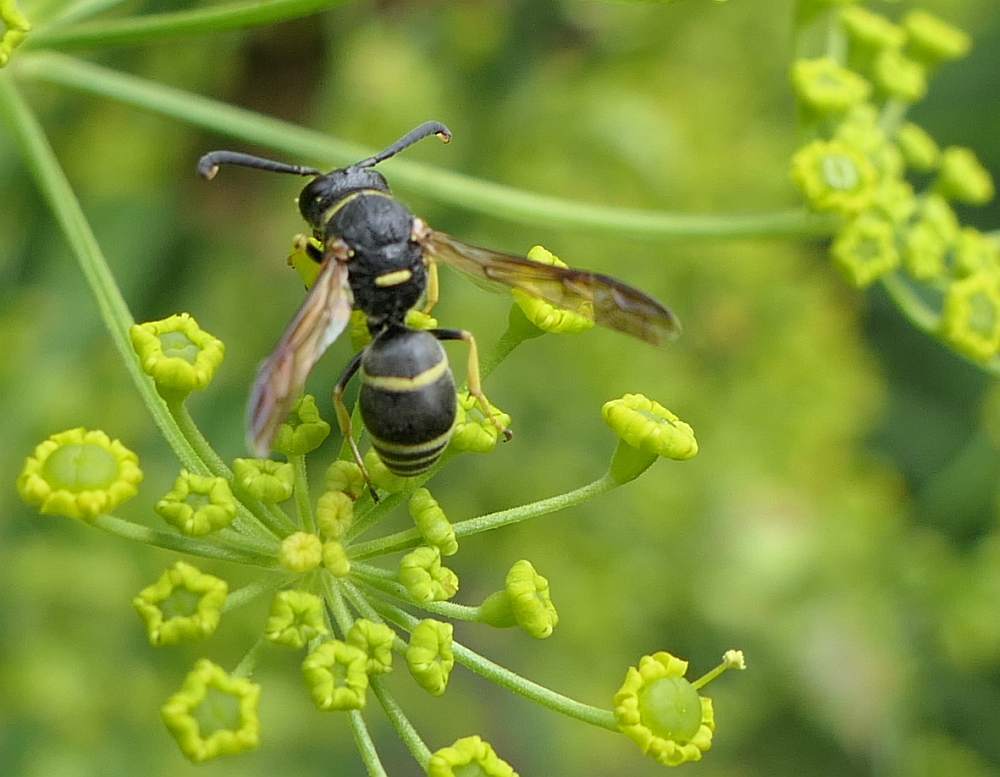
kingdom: Animalia
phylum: Arthropoda
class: Insecta
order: Hymenoptera
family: Eumenidae
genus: Euodynerus
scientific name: Euodynerus foraminatus
